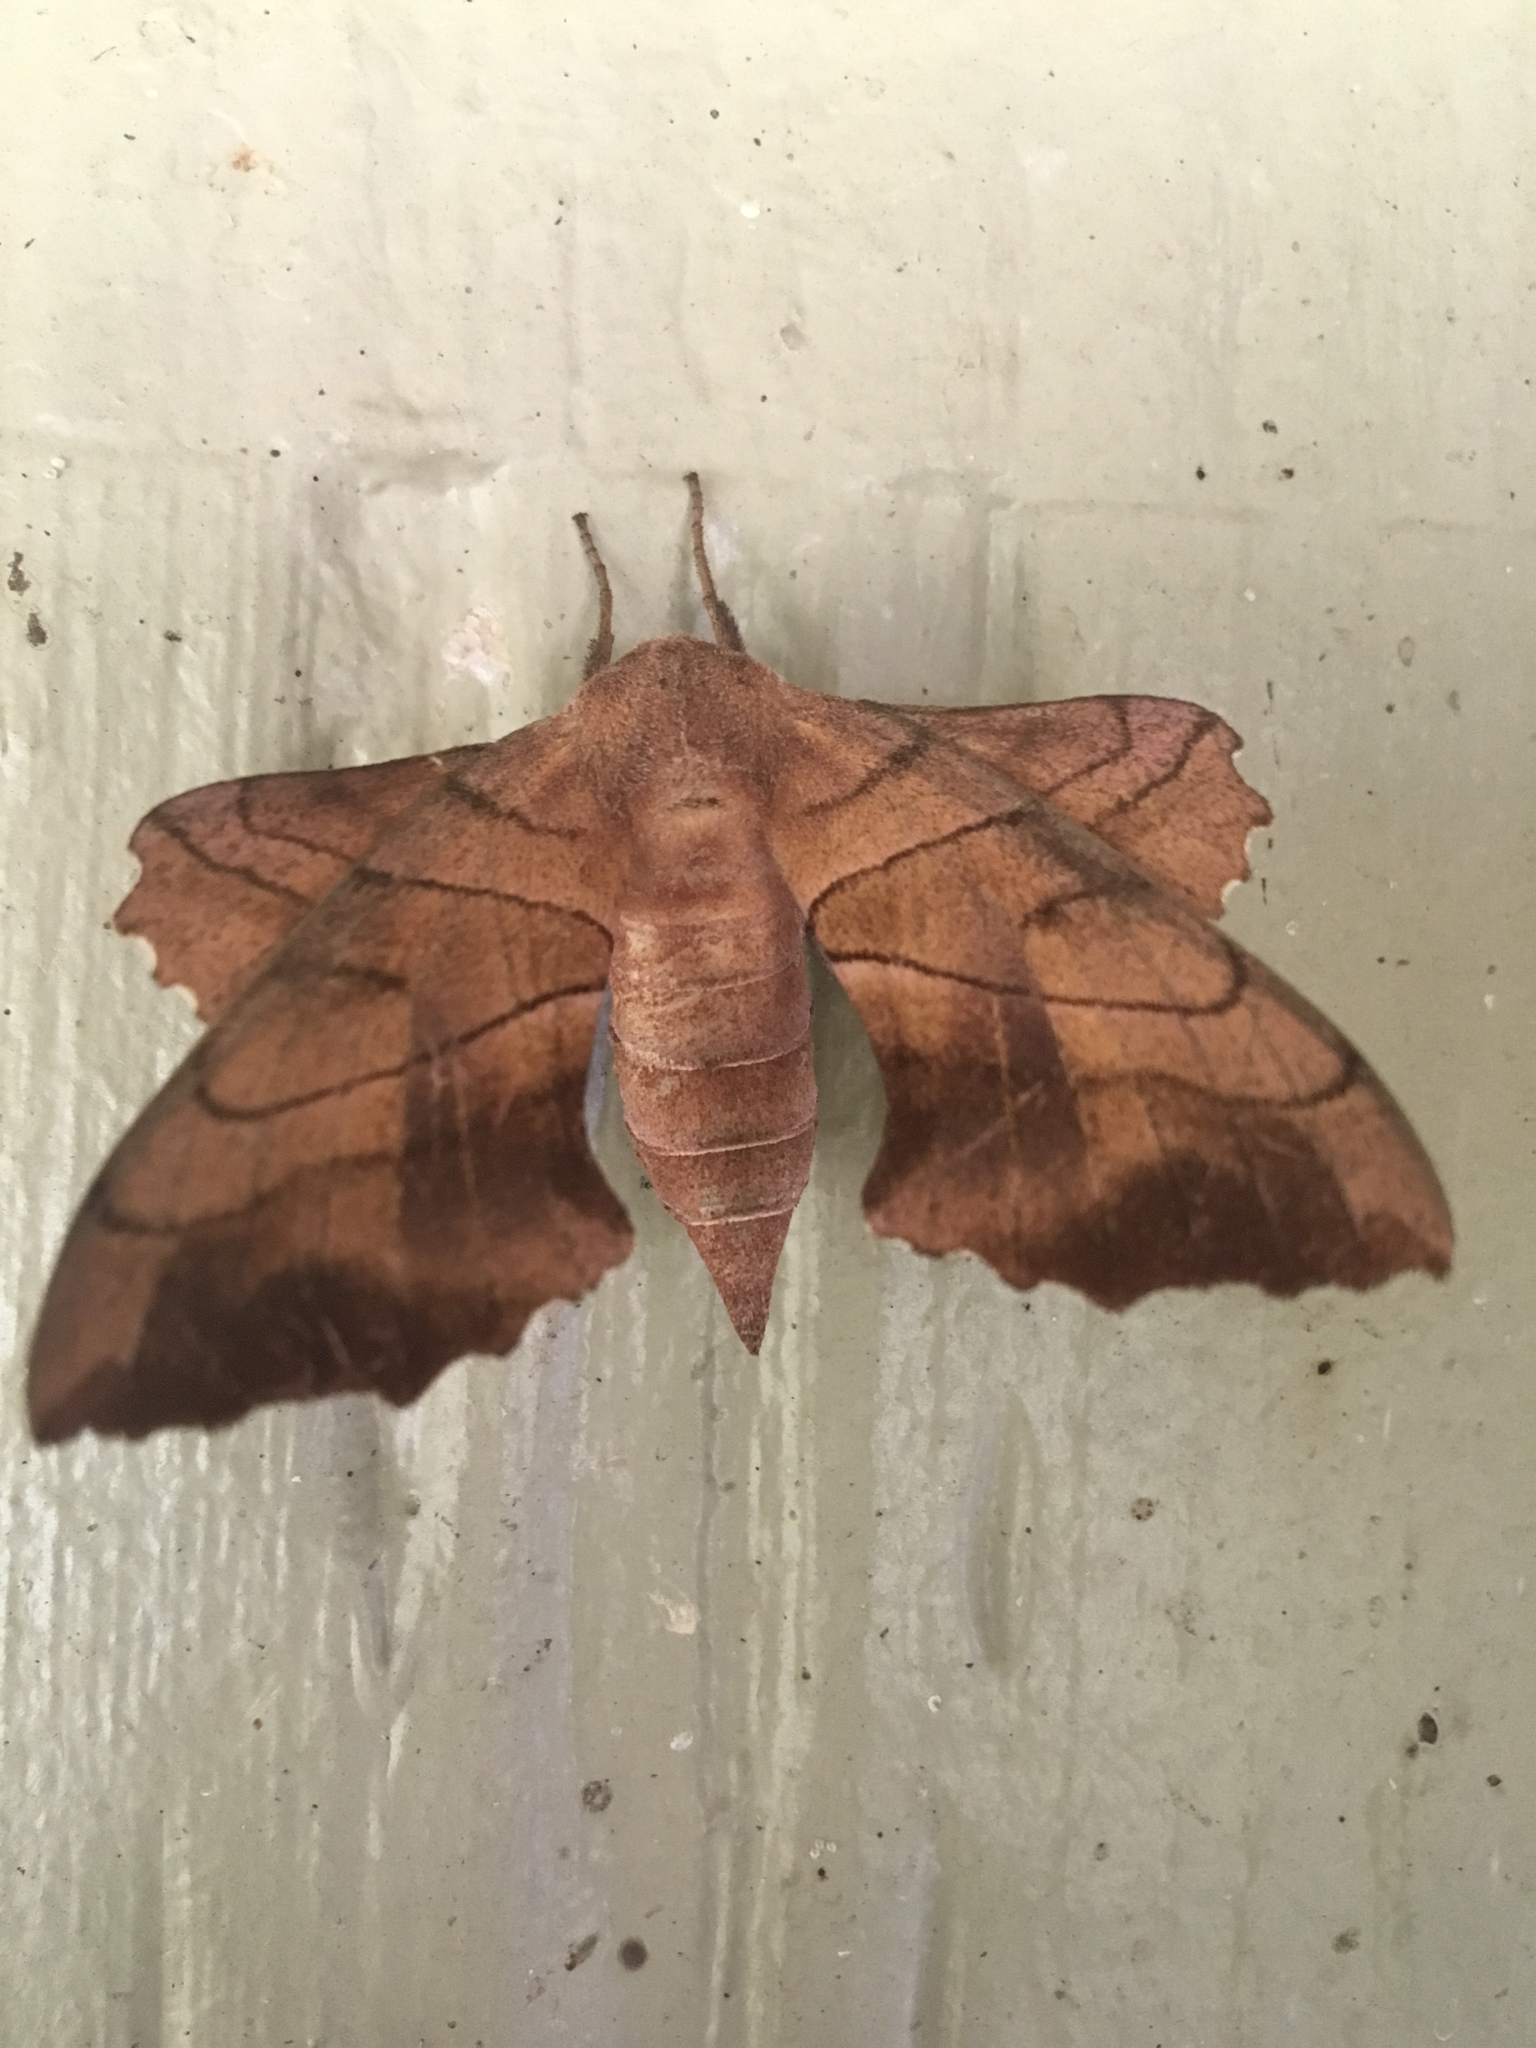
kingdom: Animalia
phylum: Arthropoda
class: Insecta
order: Lepidoptera
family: Sphingidae
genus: Amorpha
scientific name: Amorpha juglandis
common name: Walnut sphinx
